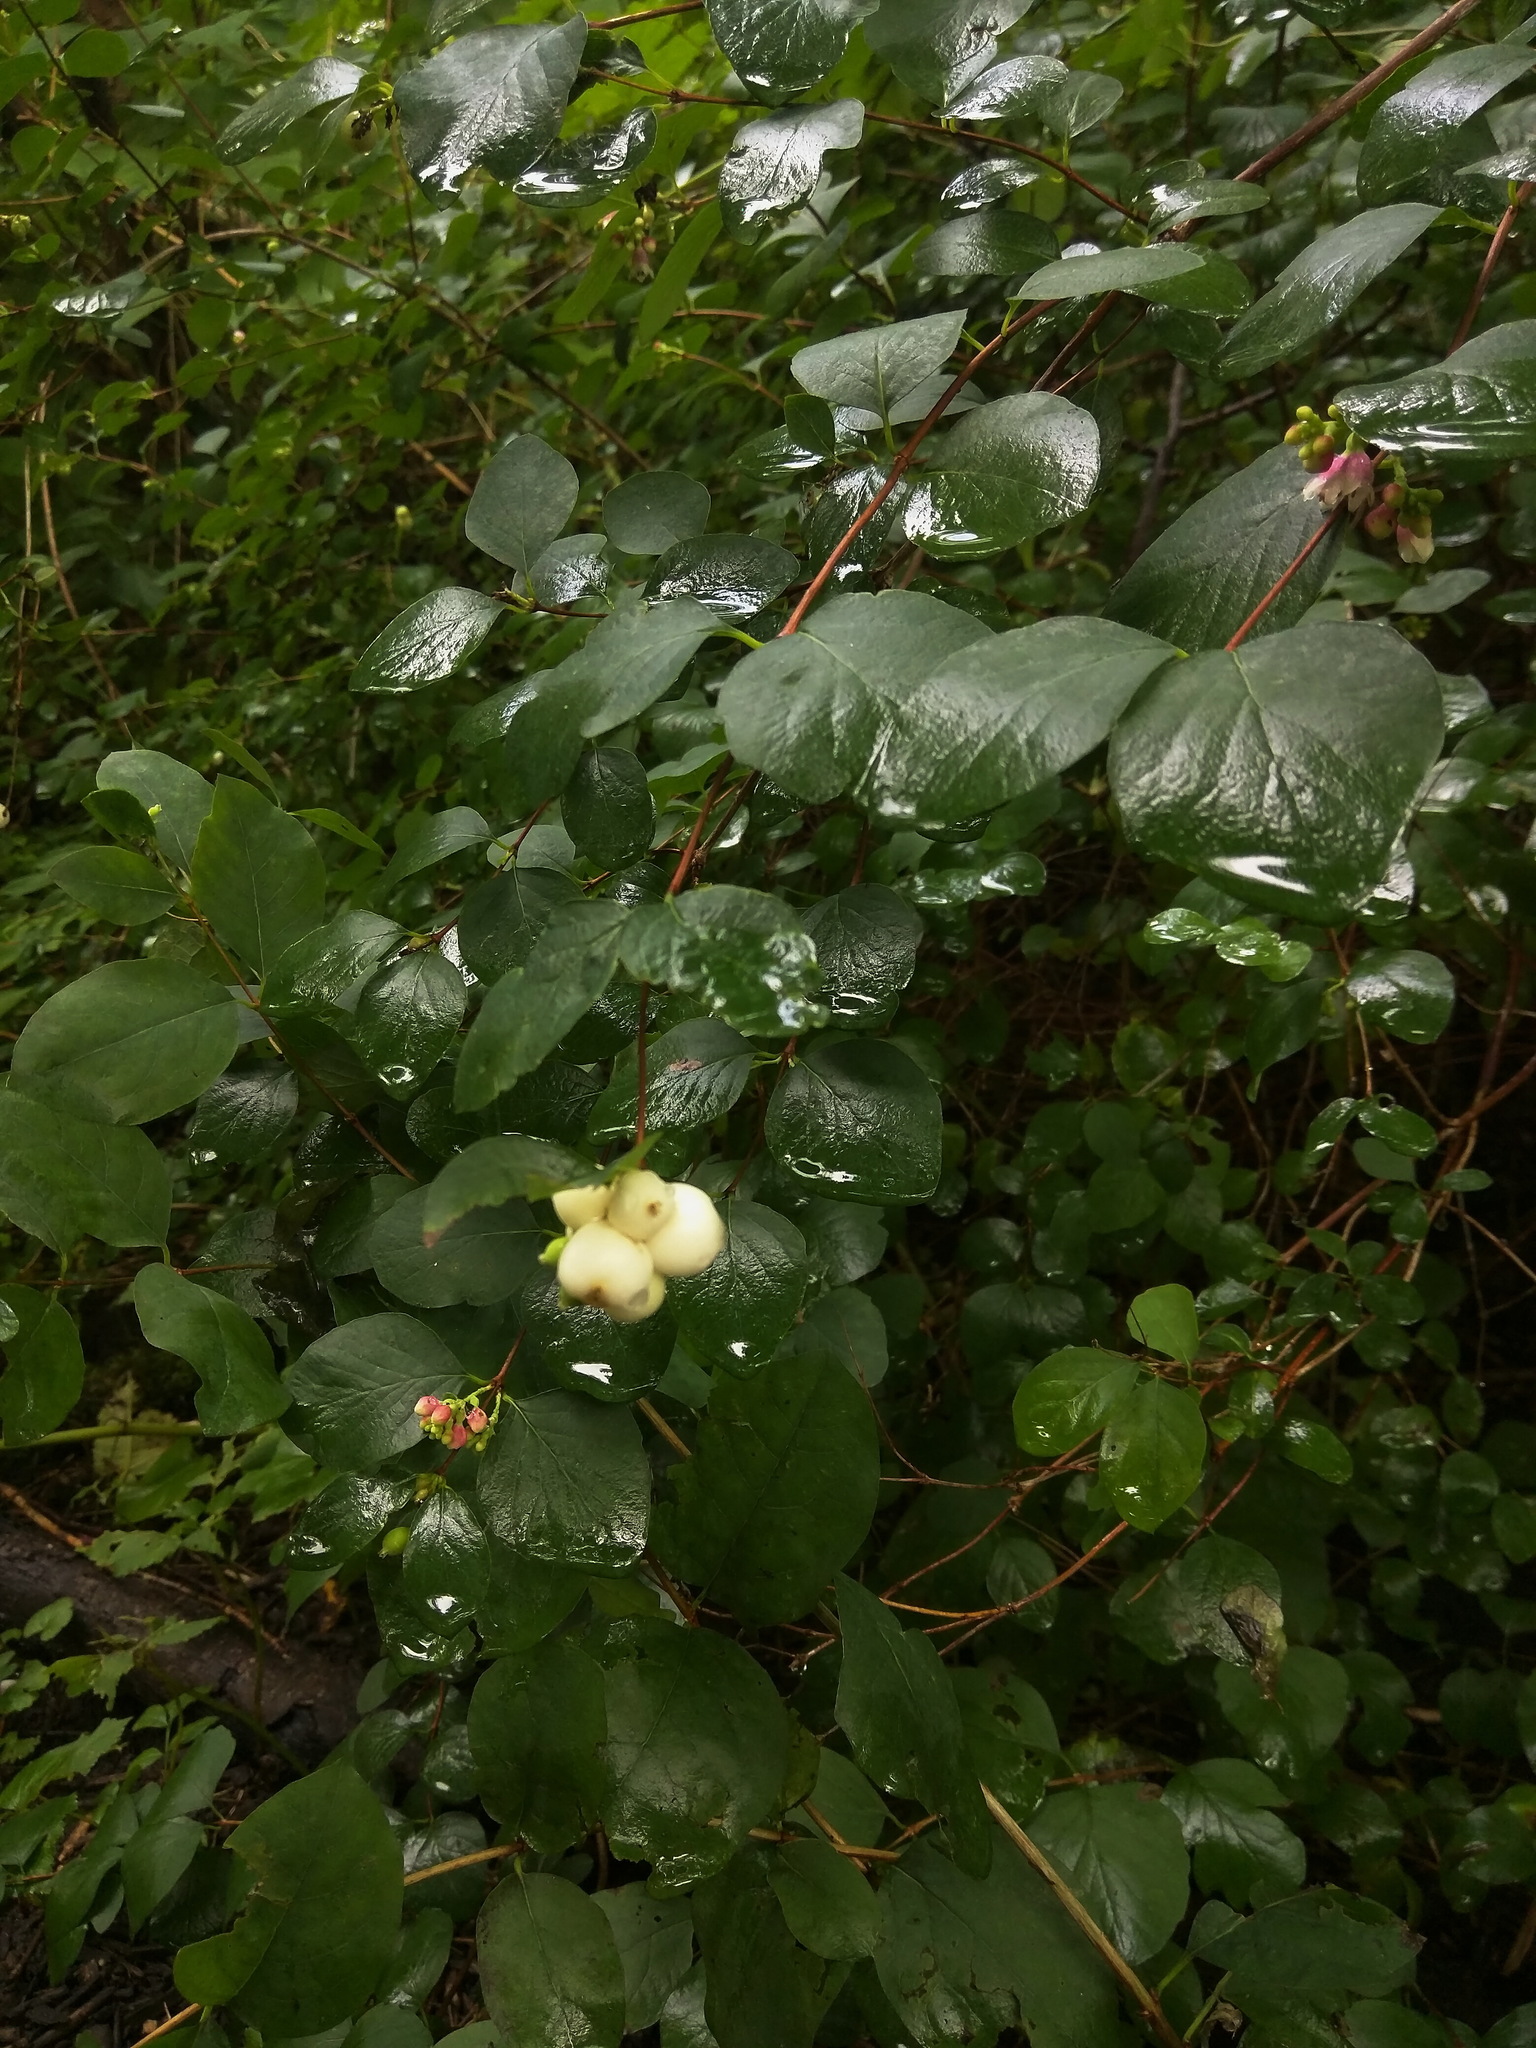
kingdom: Plantae
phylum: Tracheophyta
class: Magnoliopsida
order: Dipsacales
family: Caprifoliaceae
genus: Symphoricarpos
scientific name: Symphoricarpos albus
